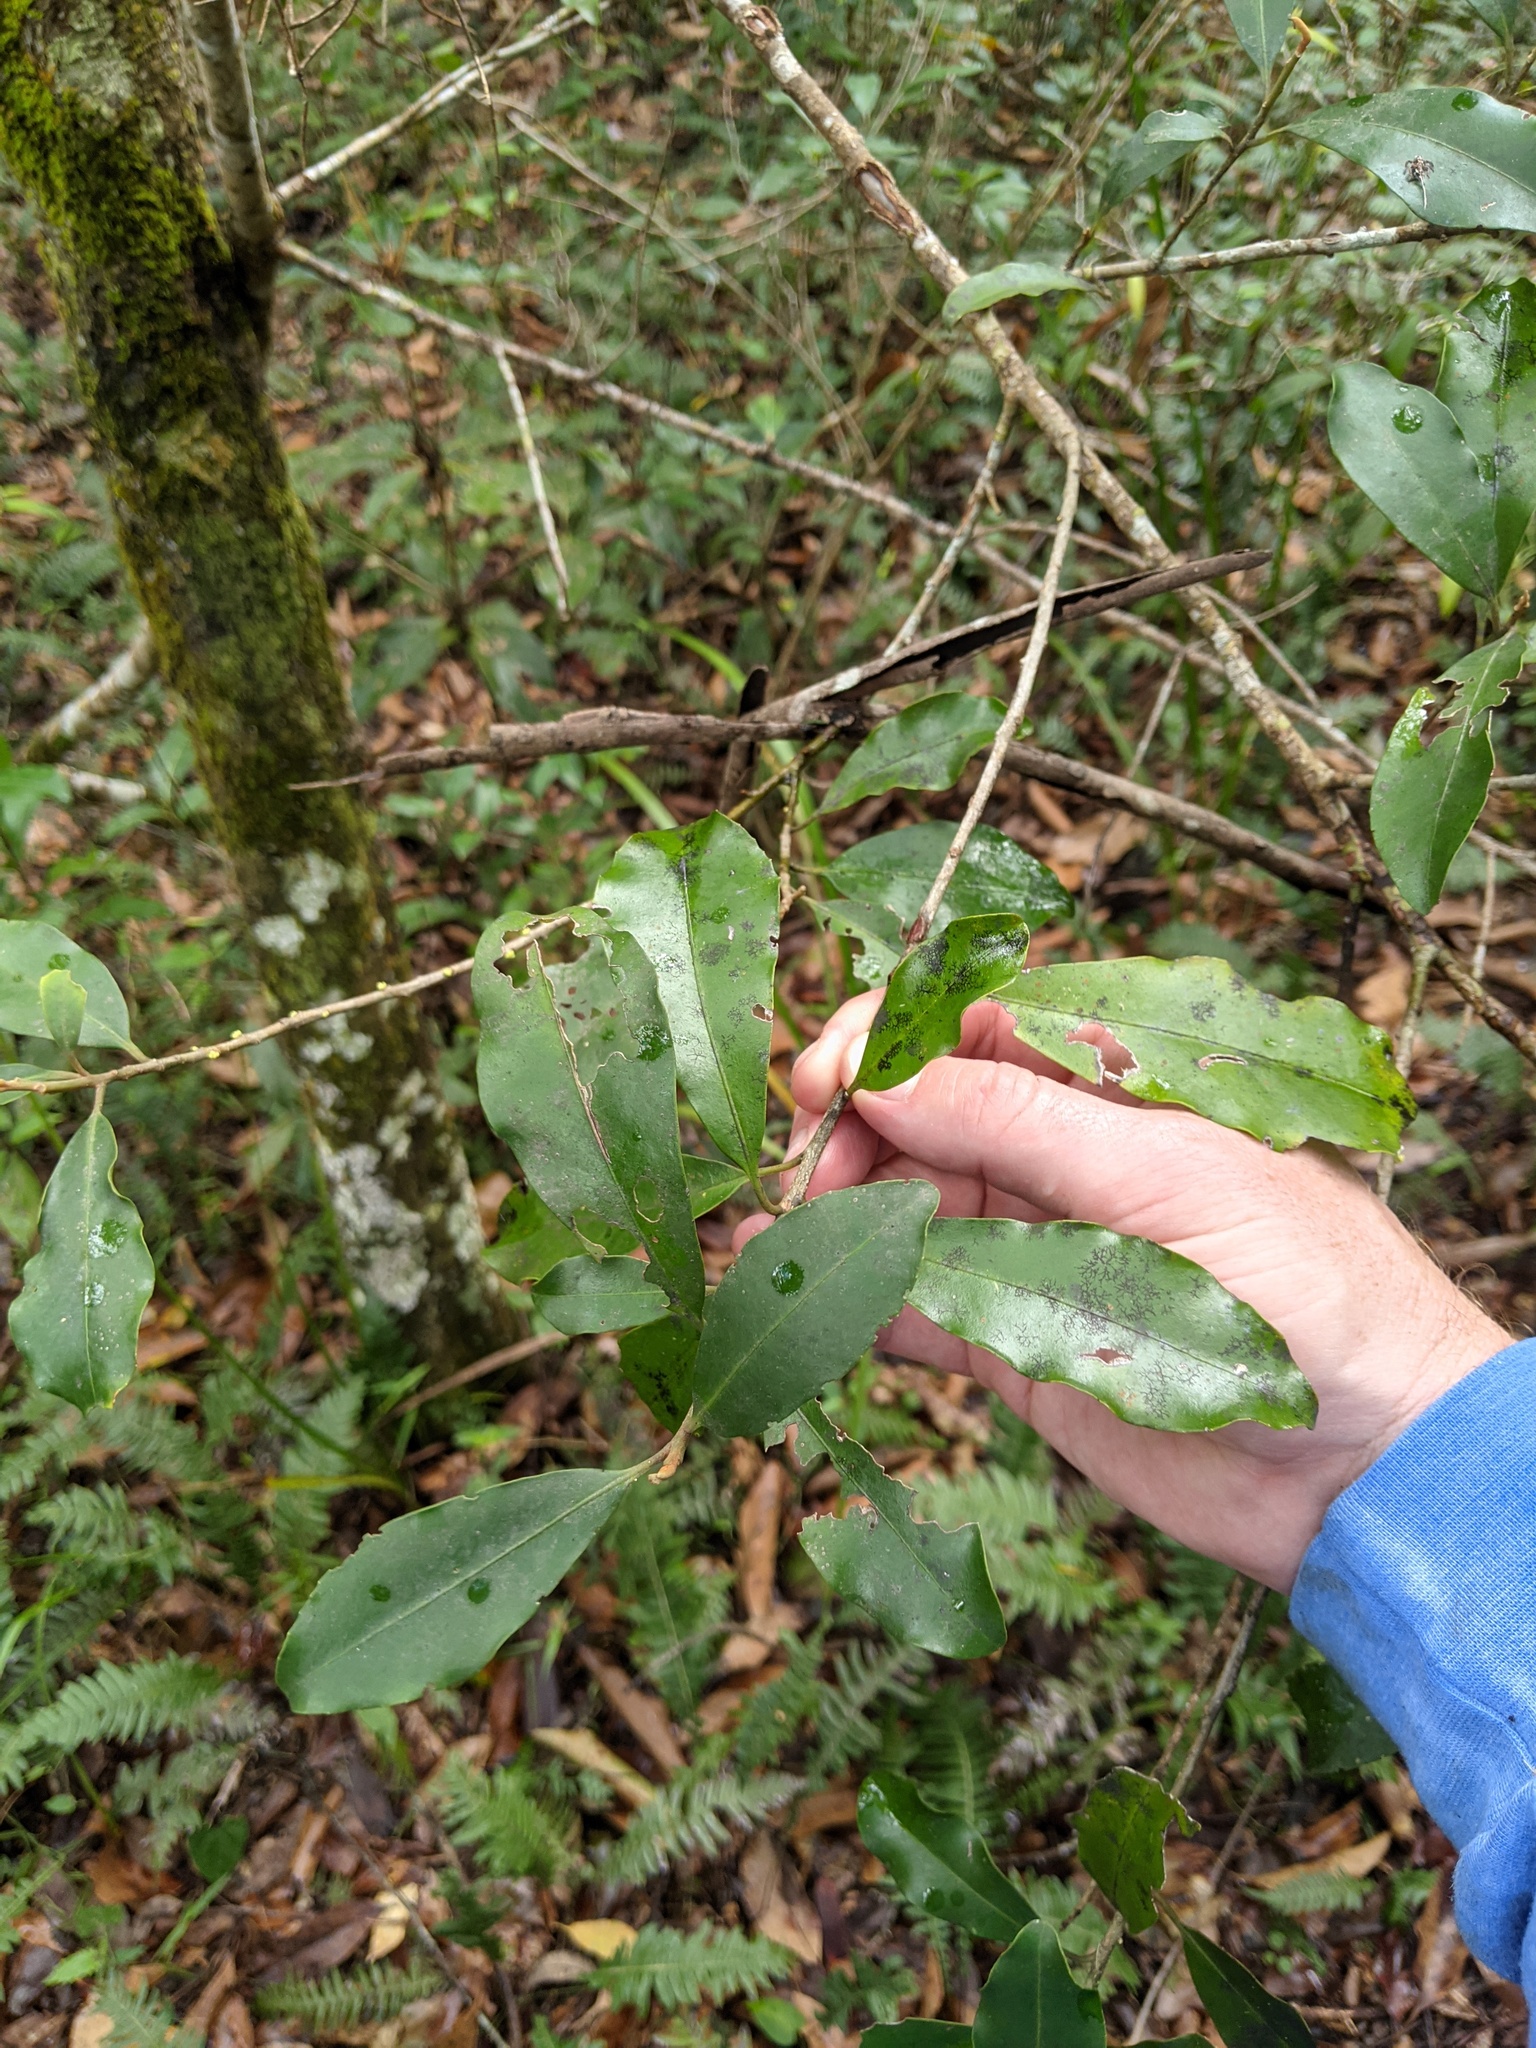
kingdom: Plantae
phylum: Tracheophyta
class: Magnoliopsida
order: Ericales
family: Primulaceae
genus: Myrsine
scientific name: Myrsine howittiana
